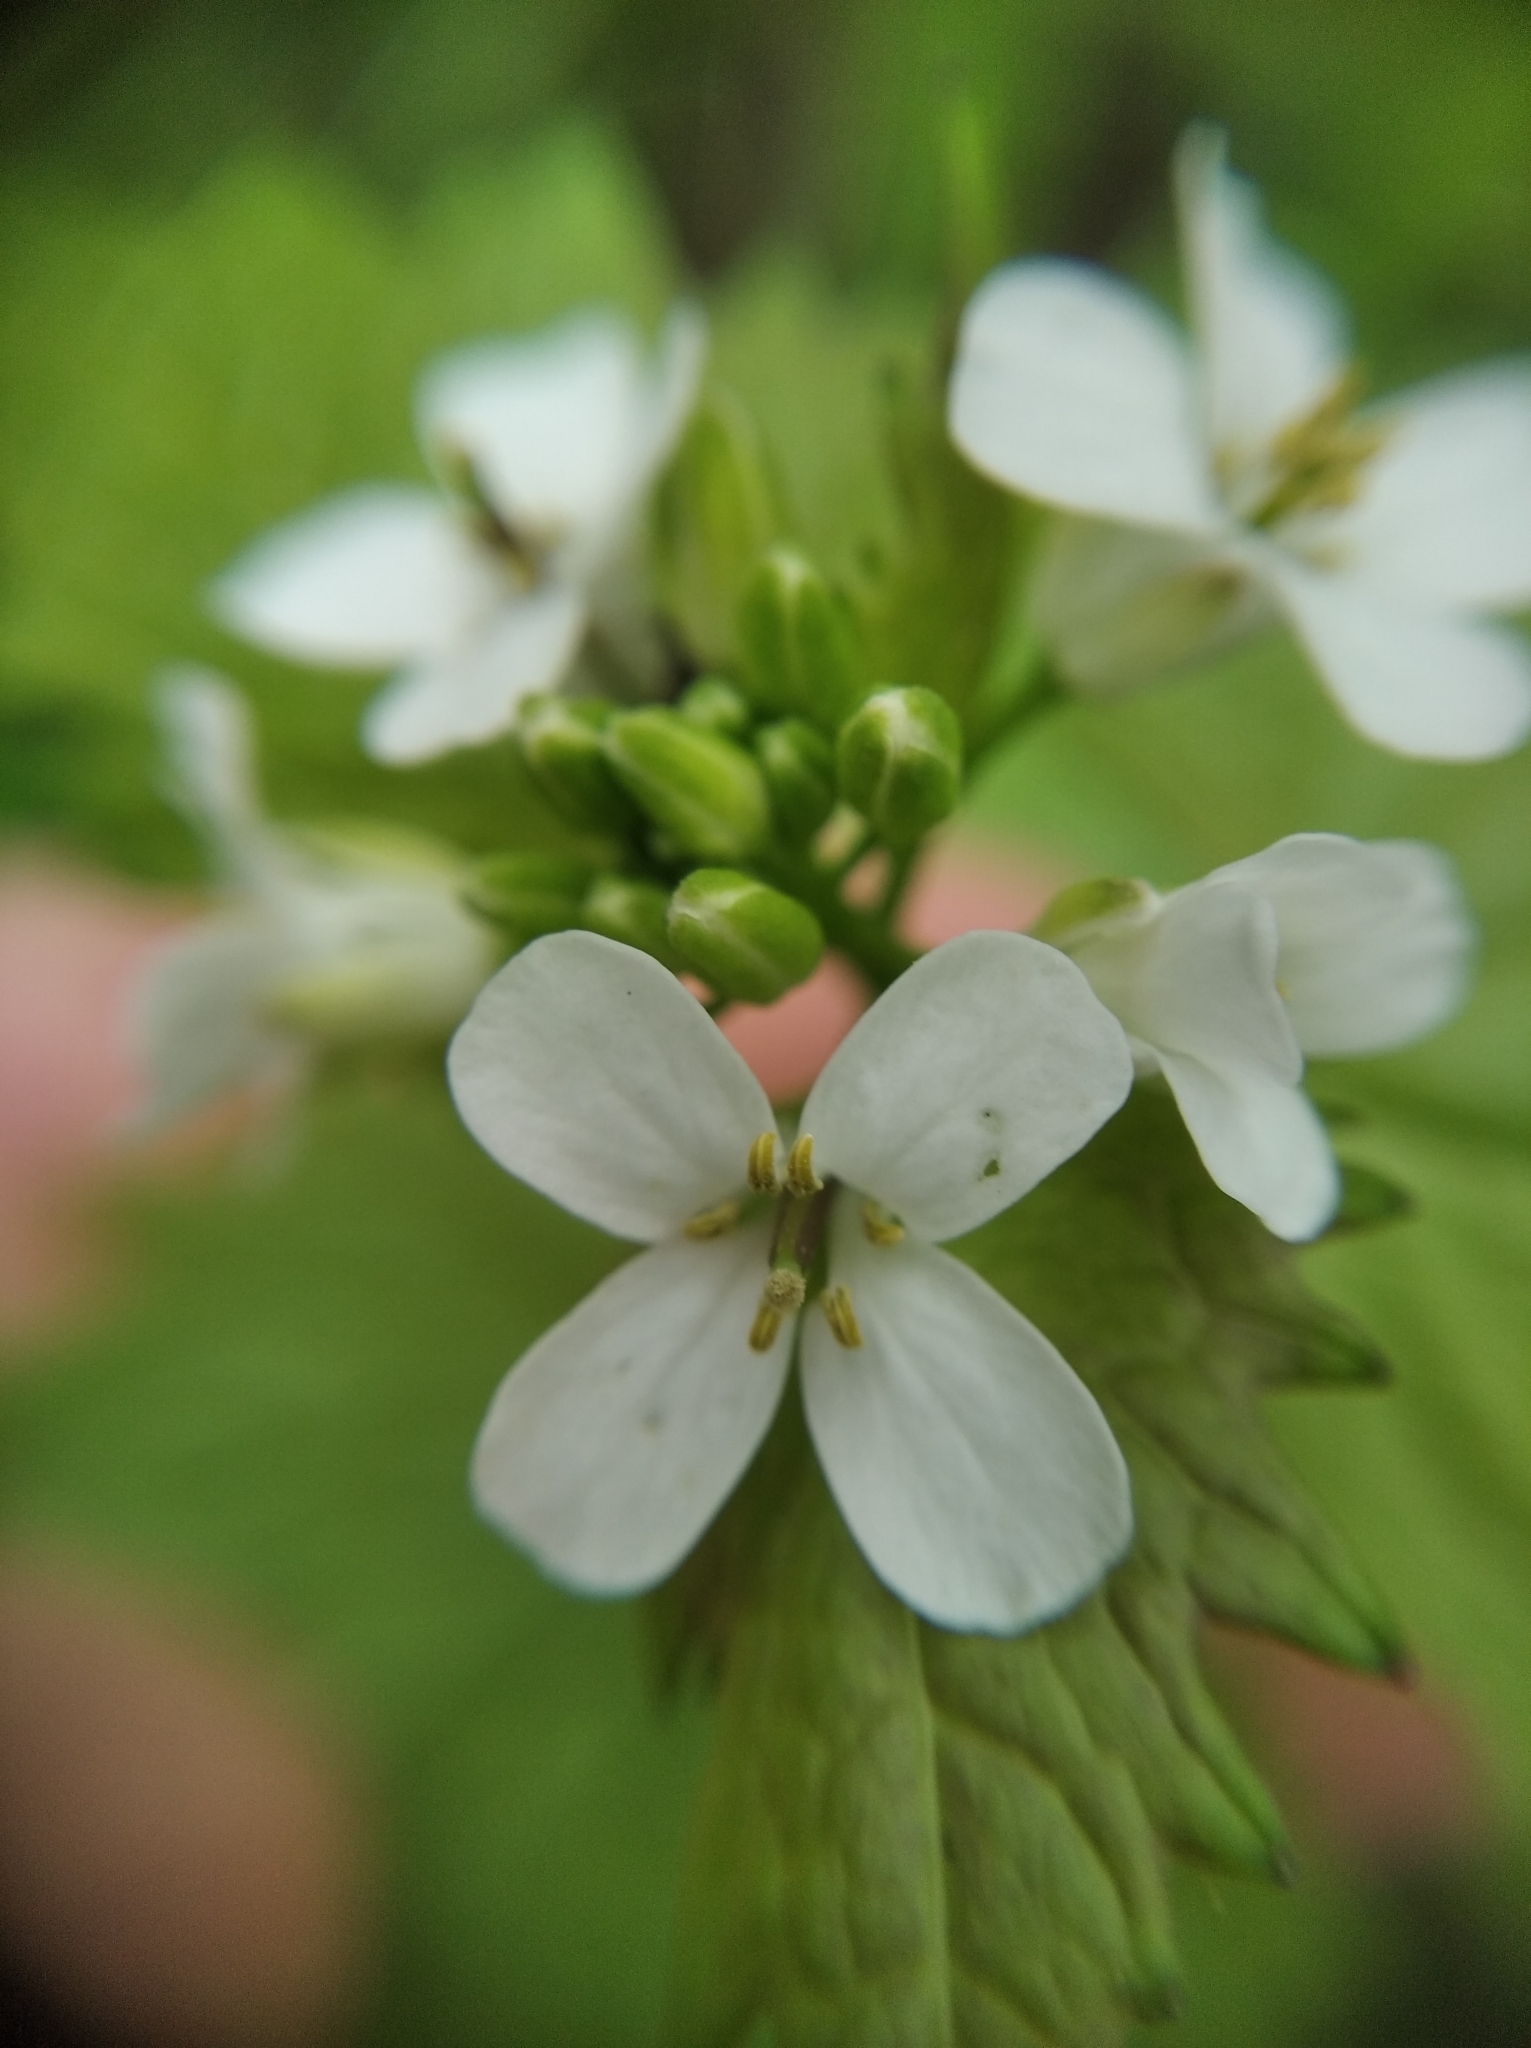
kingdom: Plantae
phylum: Tracheophyta
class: Magnoliopsida
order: Brassicales
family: Brassicaceae
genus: Alliaria
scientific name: Alliaria petiolata
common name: Garlic mustard
